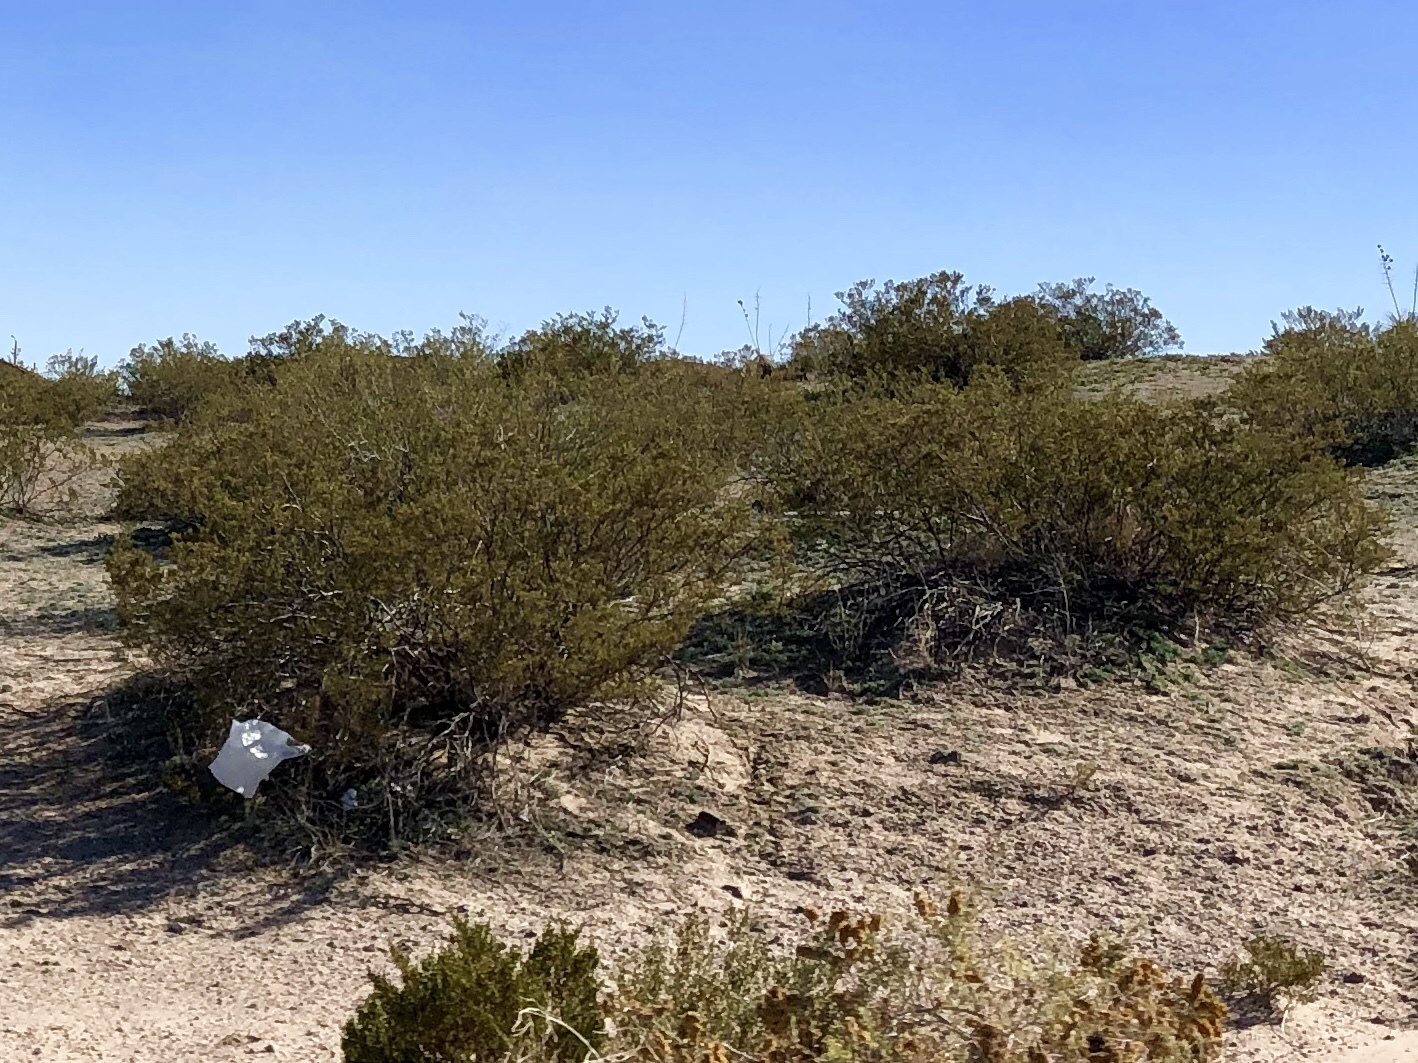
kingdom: Plantae
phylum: Tracheophyta
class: Magnoliopsida
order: Zygophyllales
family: Zygophyllaceae
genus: Larrea
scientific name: Larrea tridentata
